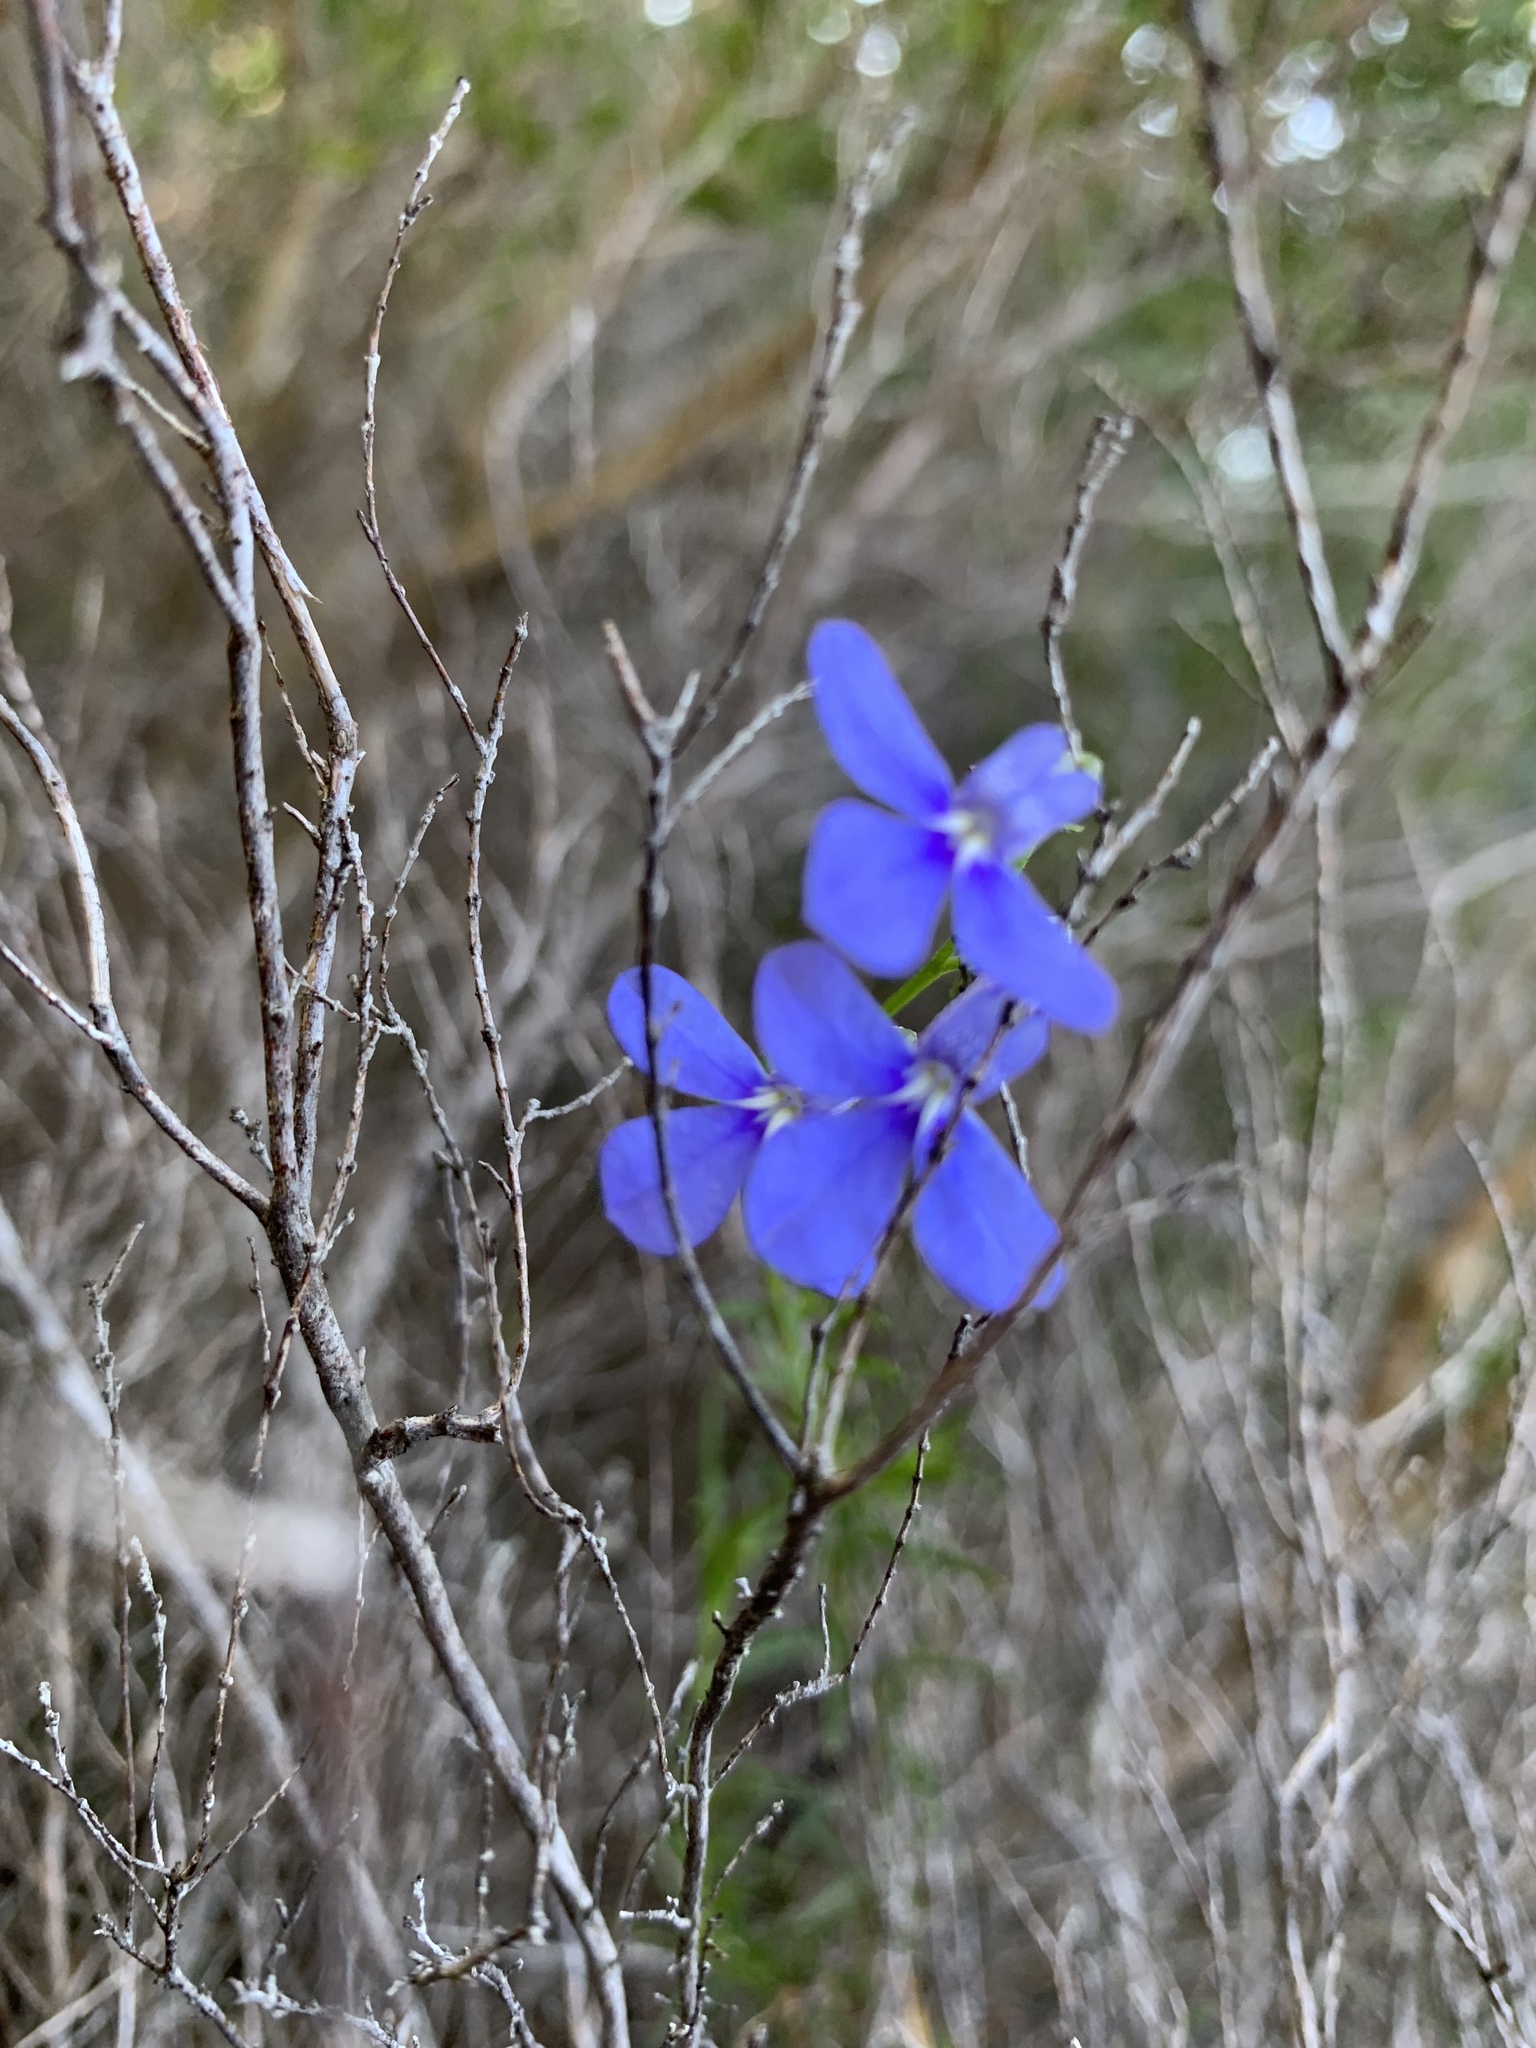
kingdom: Plantae
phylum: Tracheophyta
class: Magnoliopsida
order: Asterales
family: Campanulaceae
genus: Lobelia
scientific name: Lobelia pinifolia
